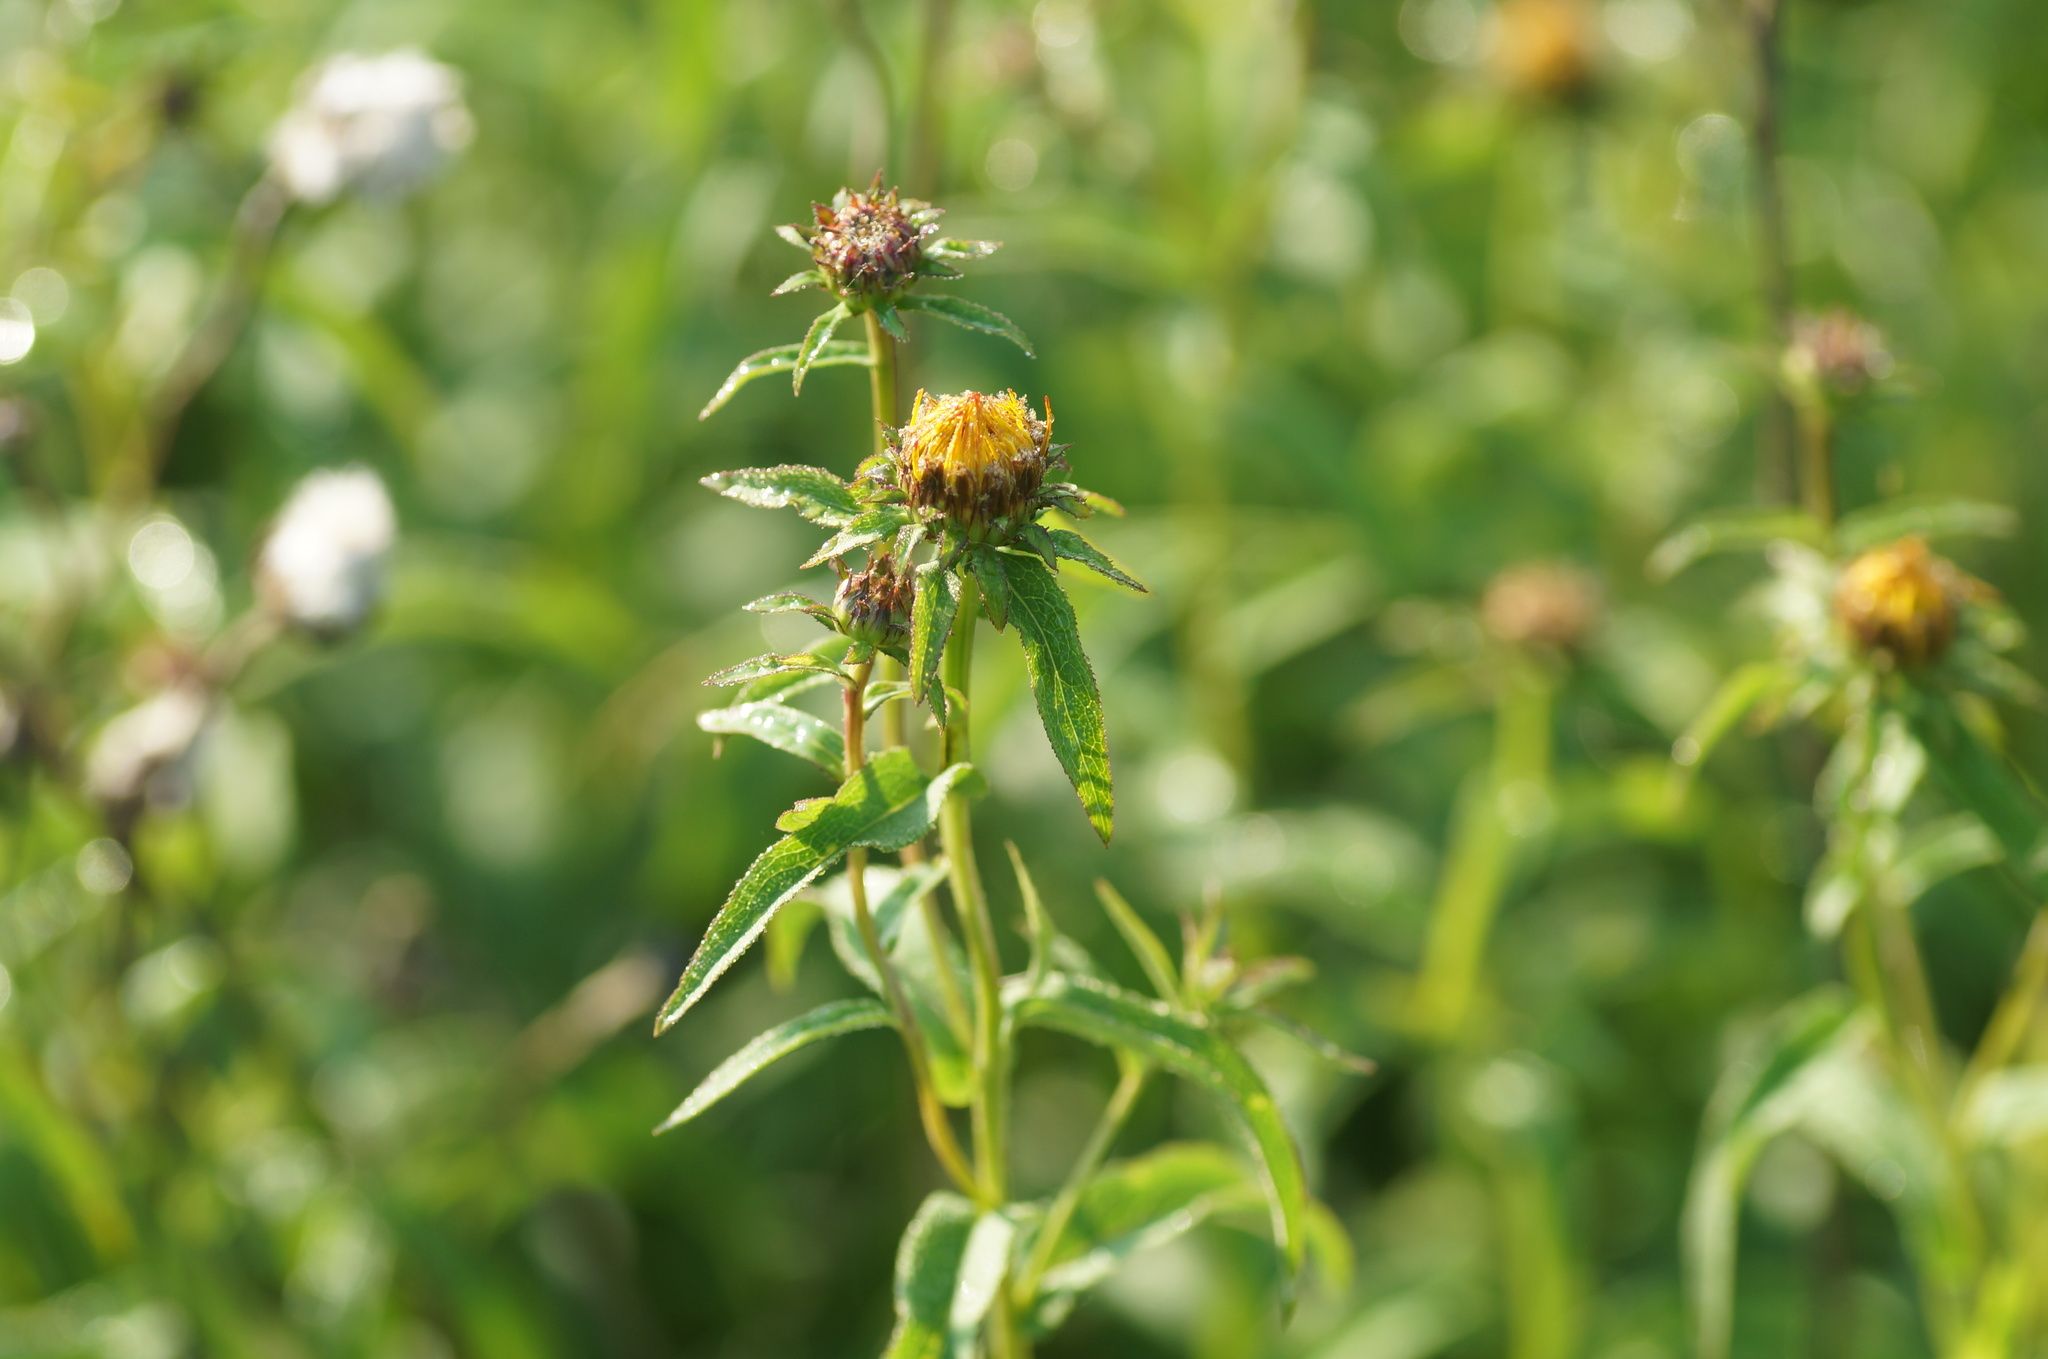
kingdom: Plantae
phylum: Tracheophyta
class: Magnoliopsida
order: Asterales
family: Asteraceae
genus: Pentanema
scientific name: Pentanema salicinum
